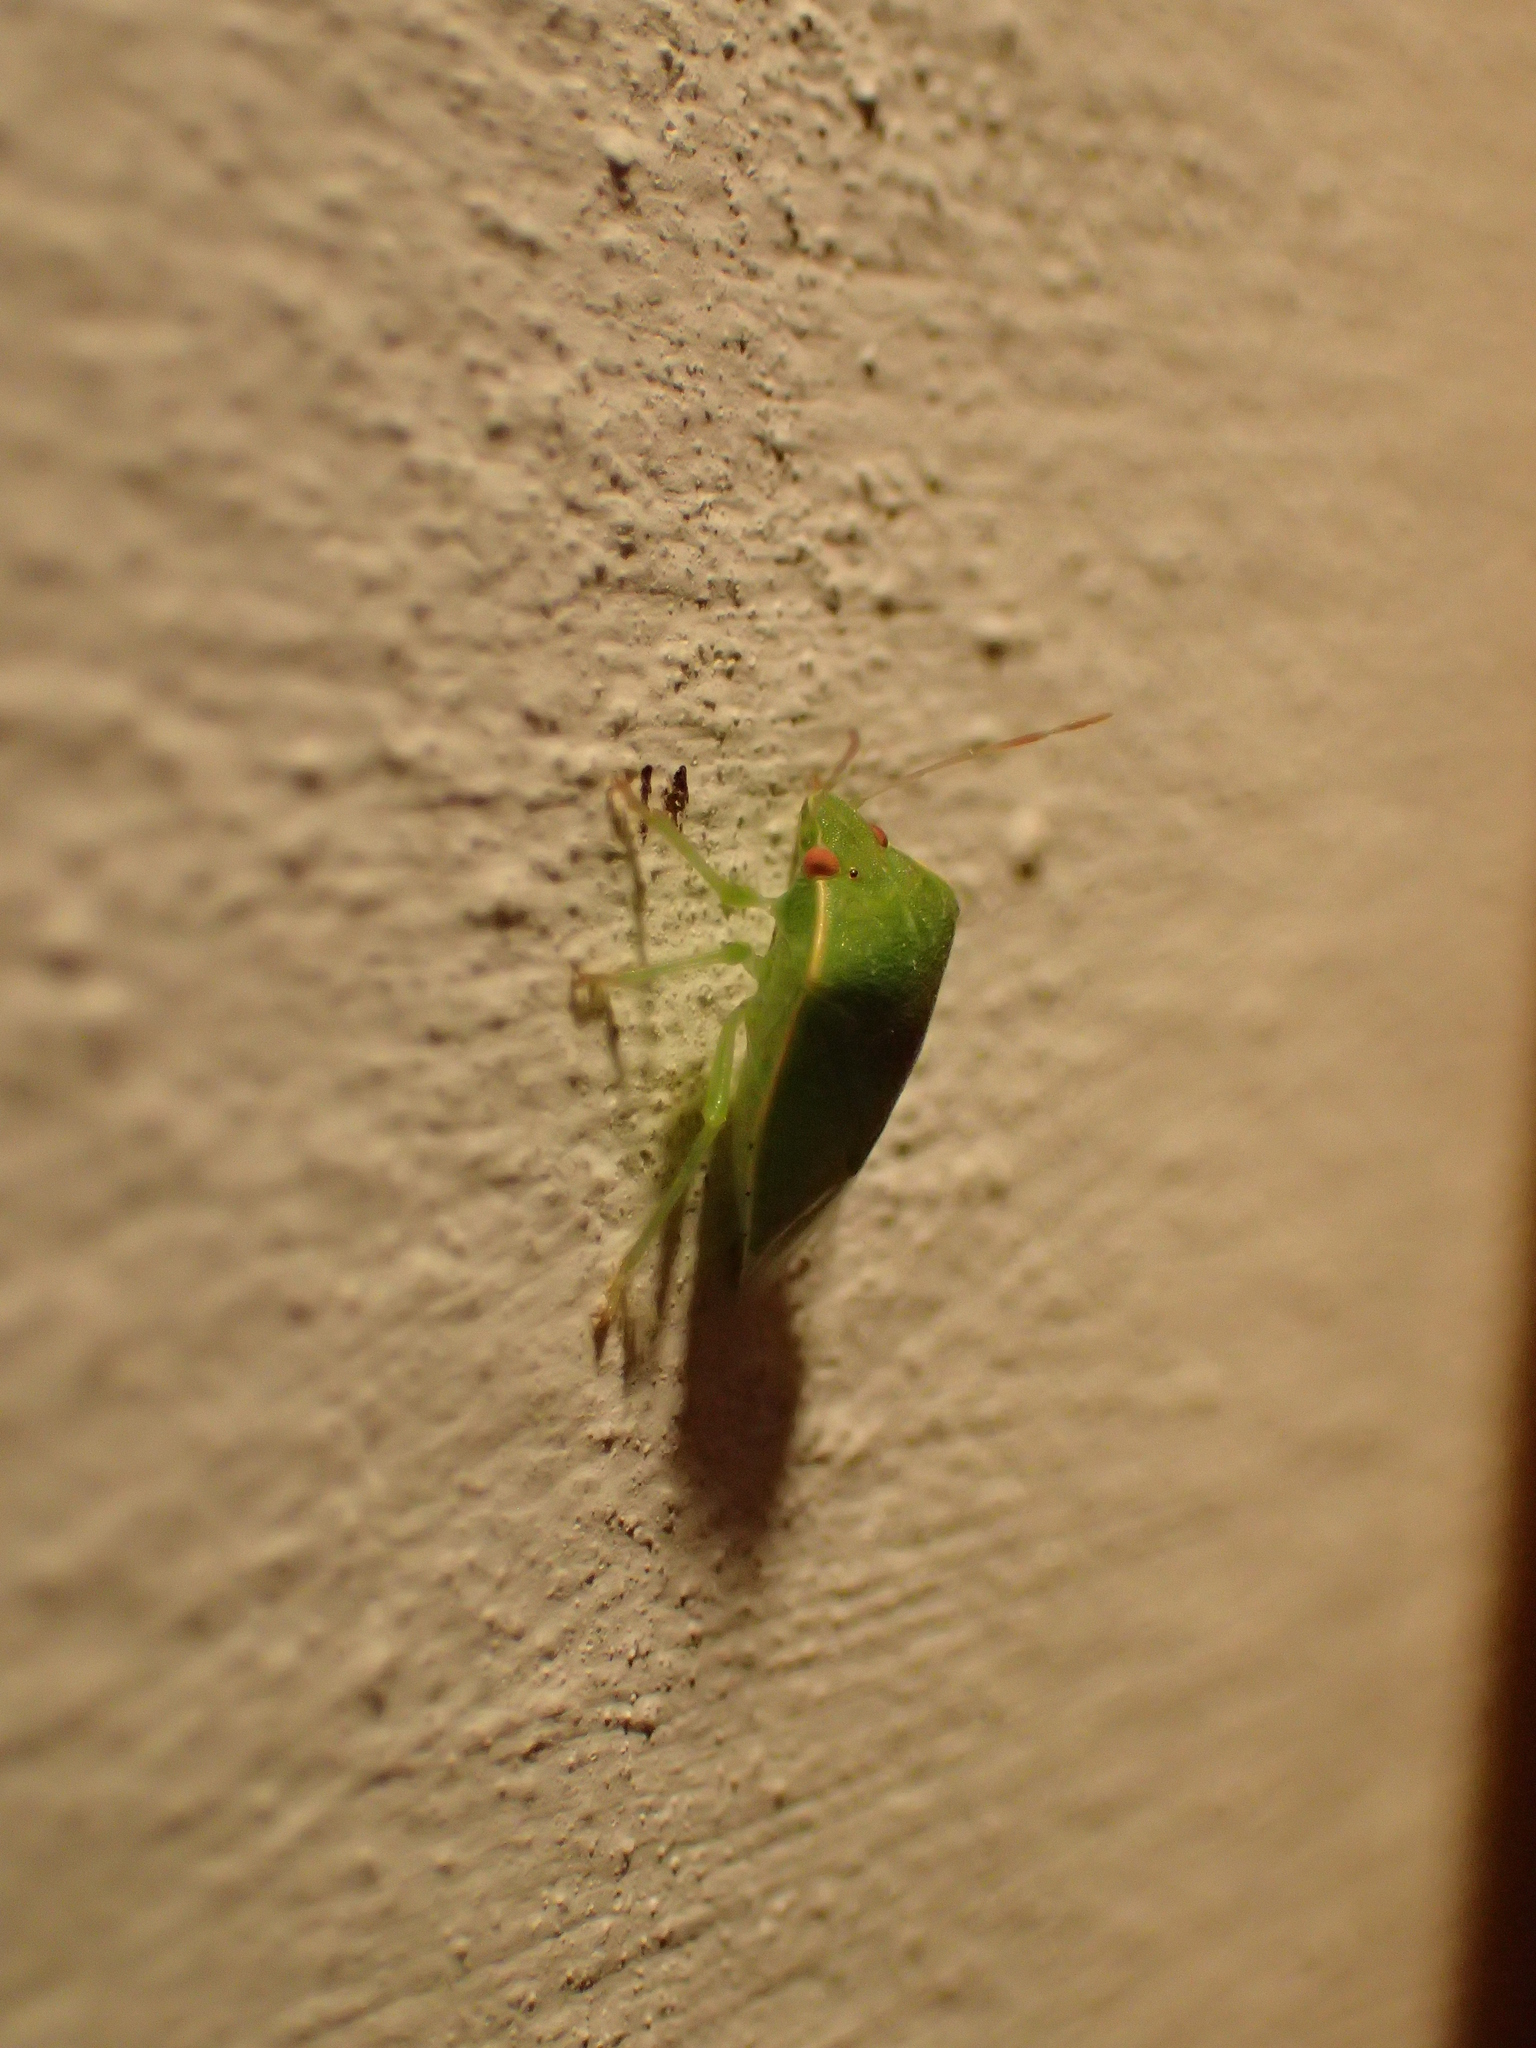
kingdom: Animalia
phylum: Arthropoda
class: Insecta
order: Hemiptera
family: Pentatomidae
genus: Acrosternum
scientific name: Acrosternum millierei
